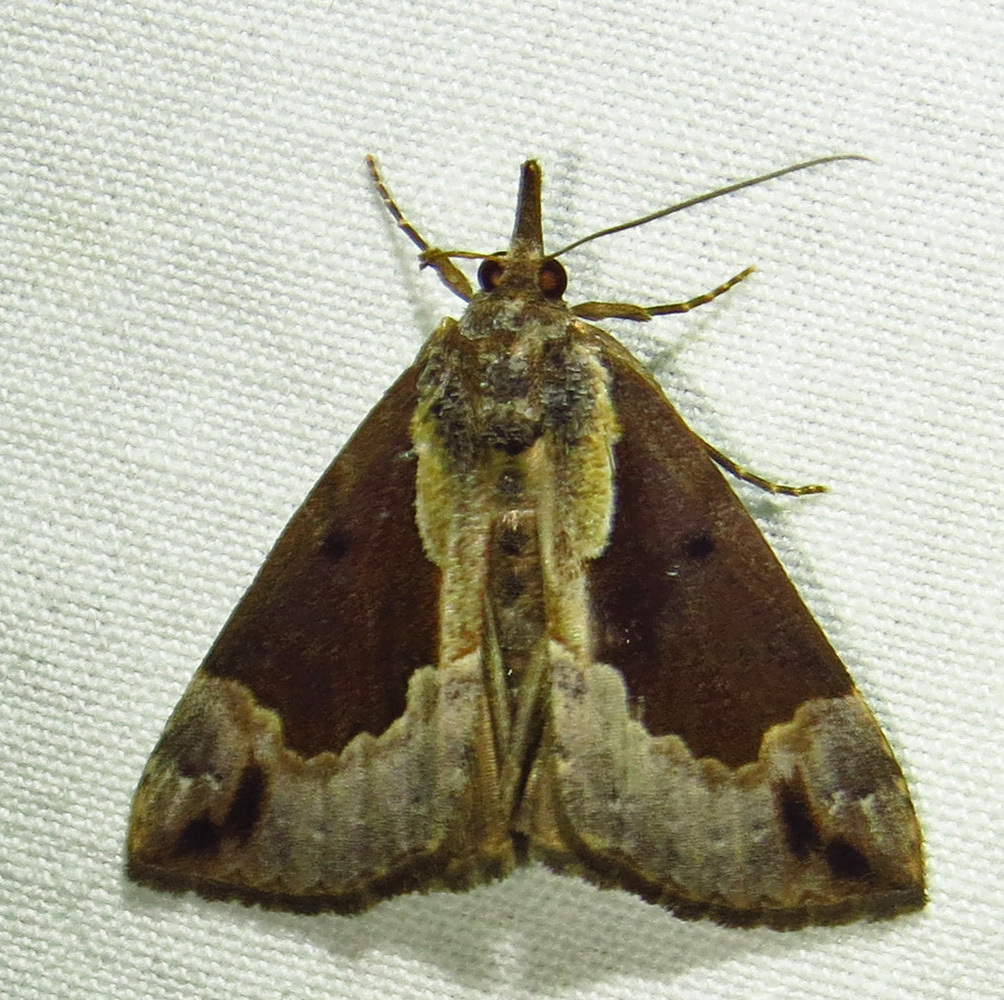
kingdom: Animalia
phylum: Arthropoda
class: Insecta
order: Lepidoptera
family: Erebidae
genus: Hypena
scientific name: Hypena baltimoralis
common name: Baltimore snout
